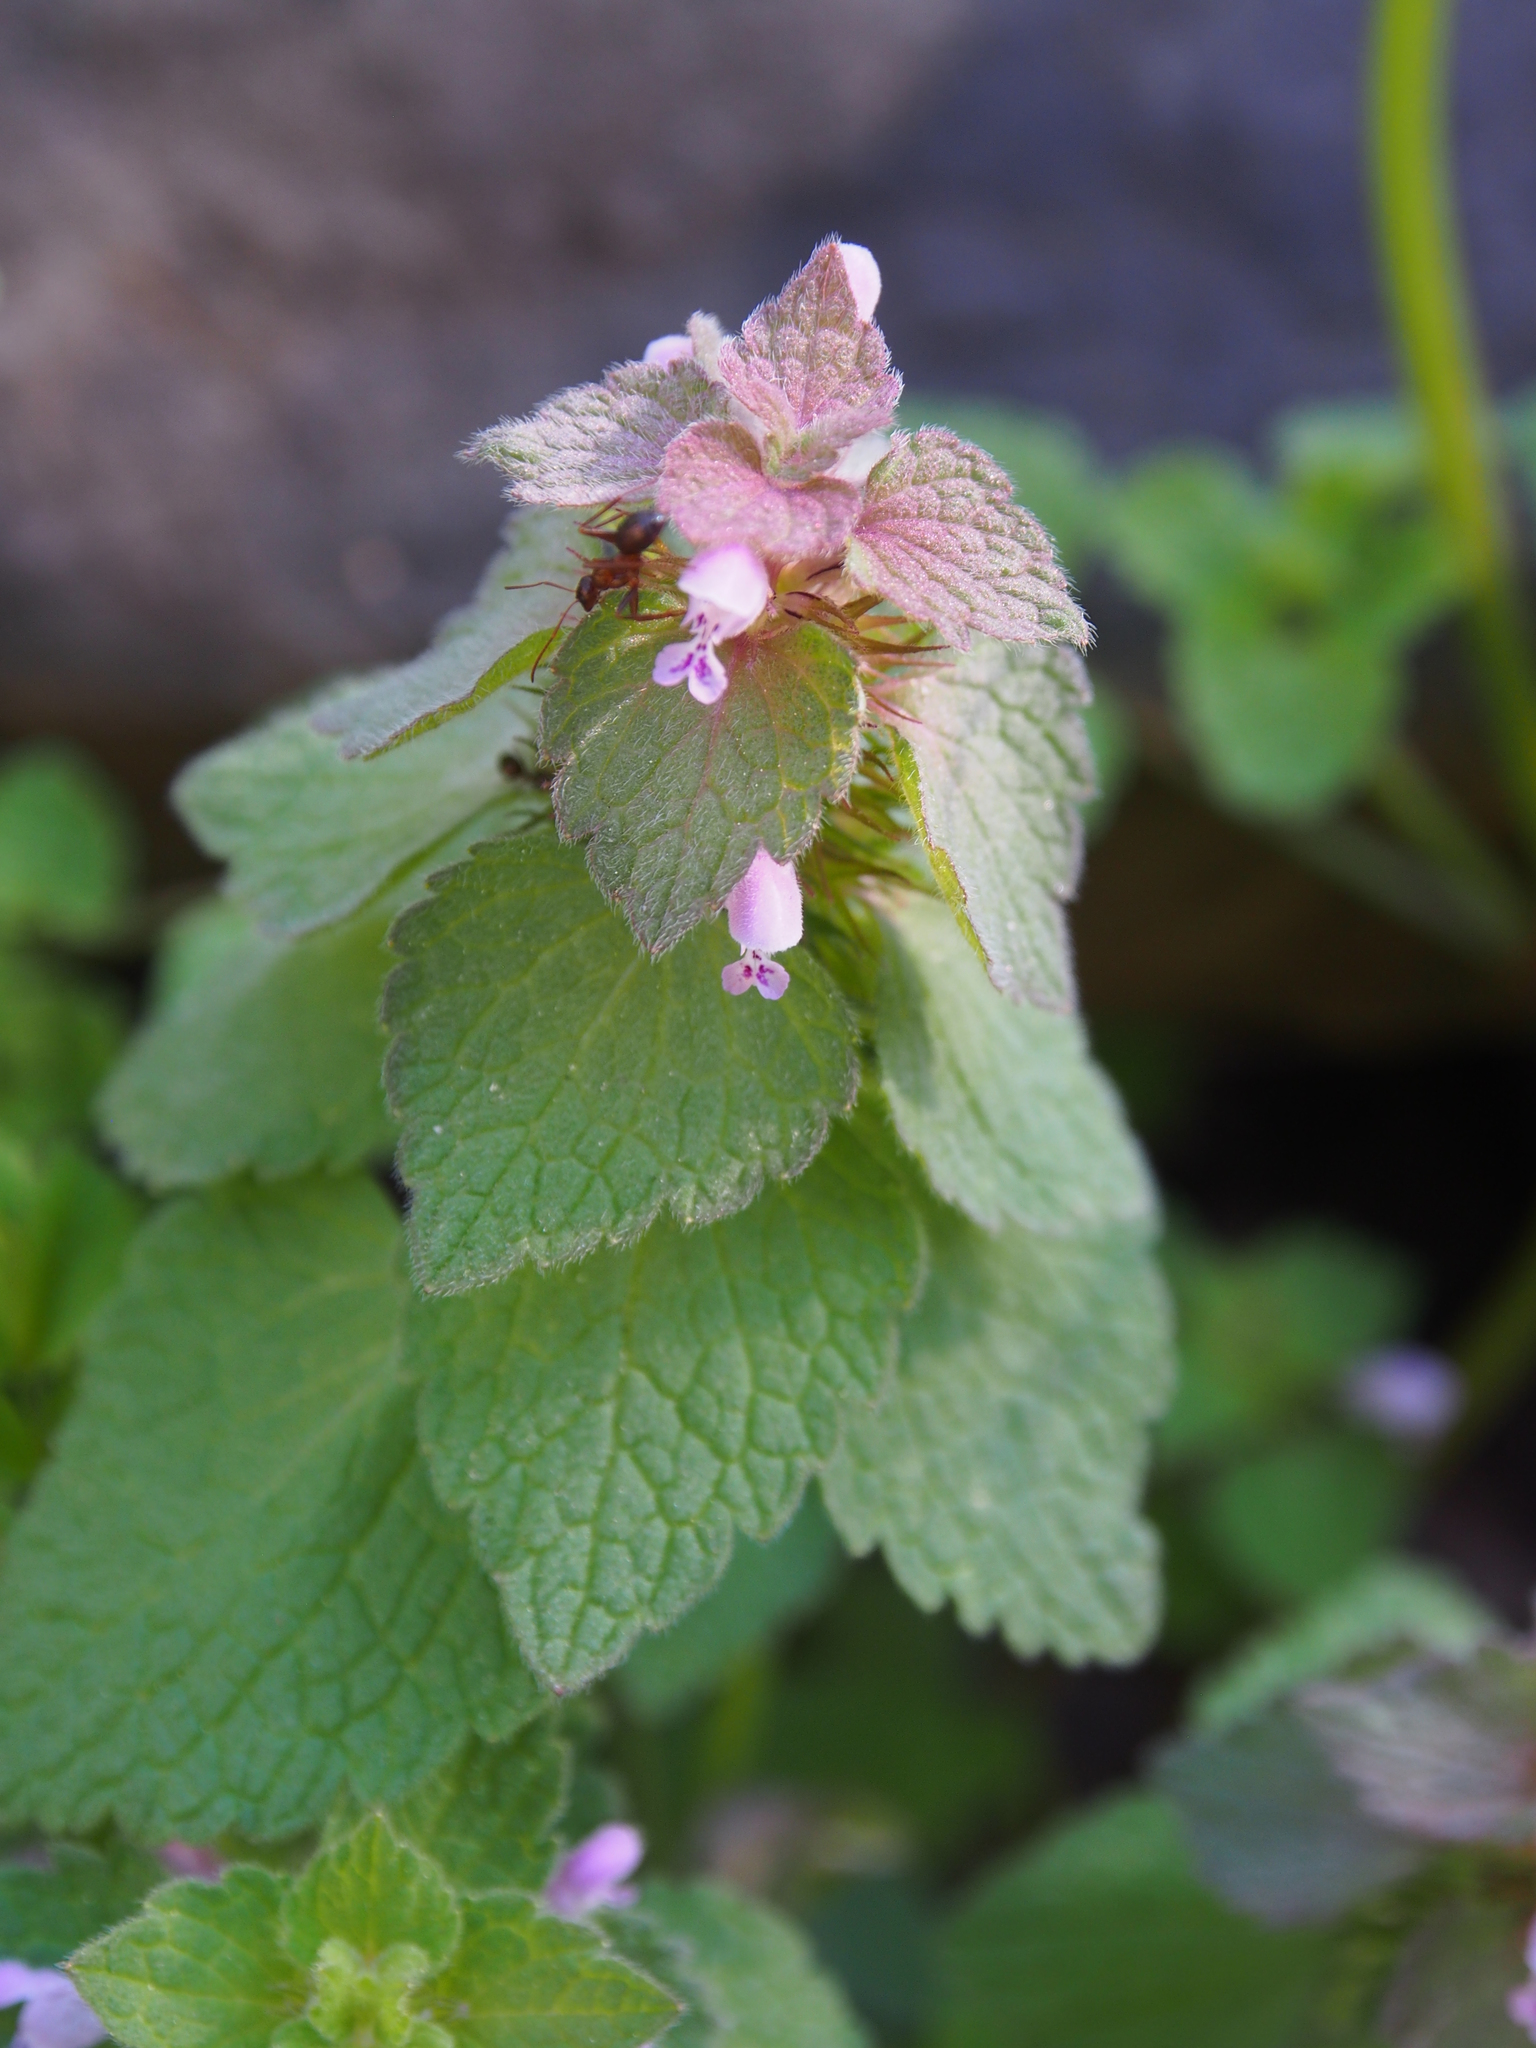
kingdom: Plantae
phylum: Tracheophyta
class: Magnoliopsida
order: Lamiales
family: Lamiaceae
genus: Lamium
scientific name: Lamium purpureum
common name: Red dead-nettle
